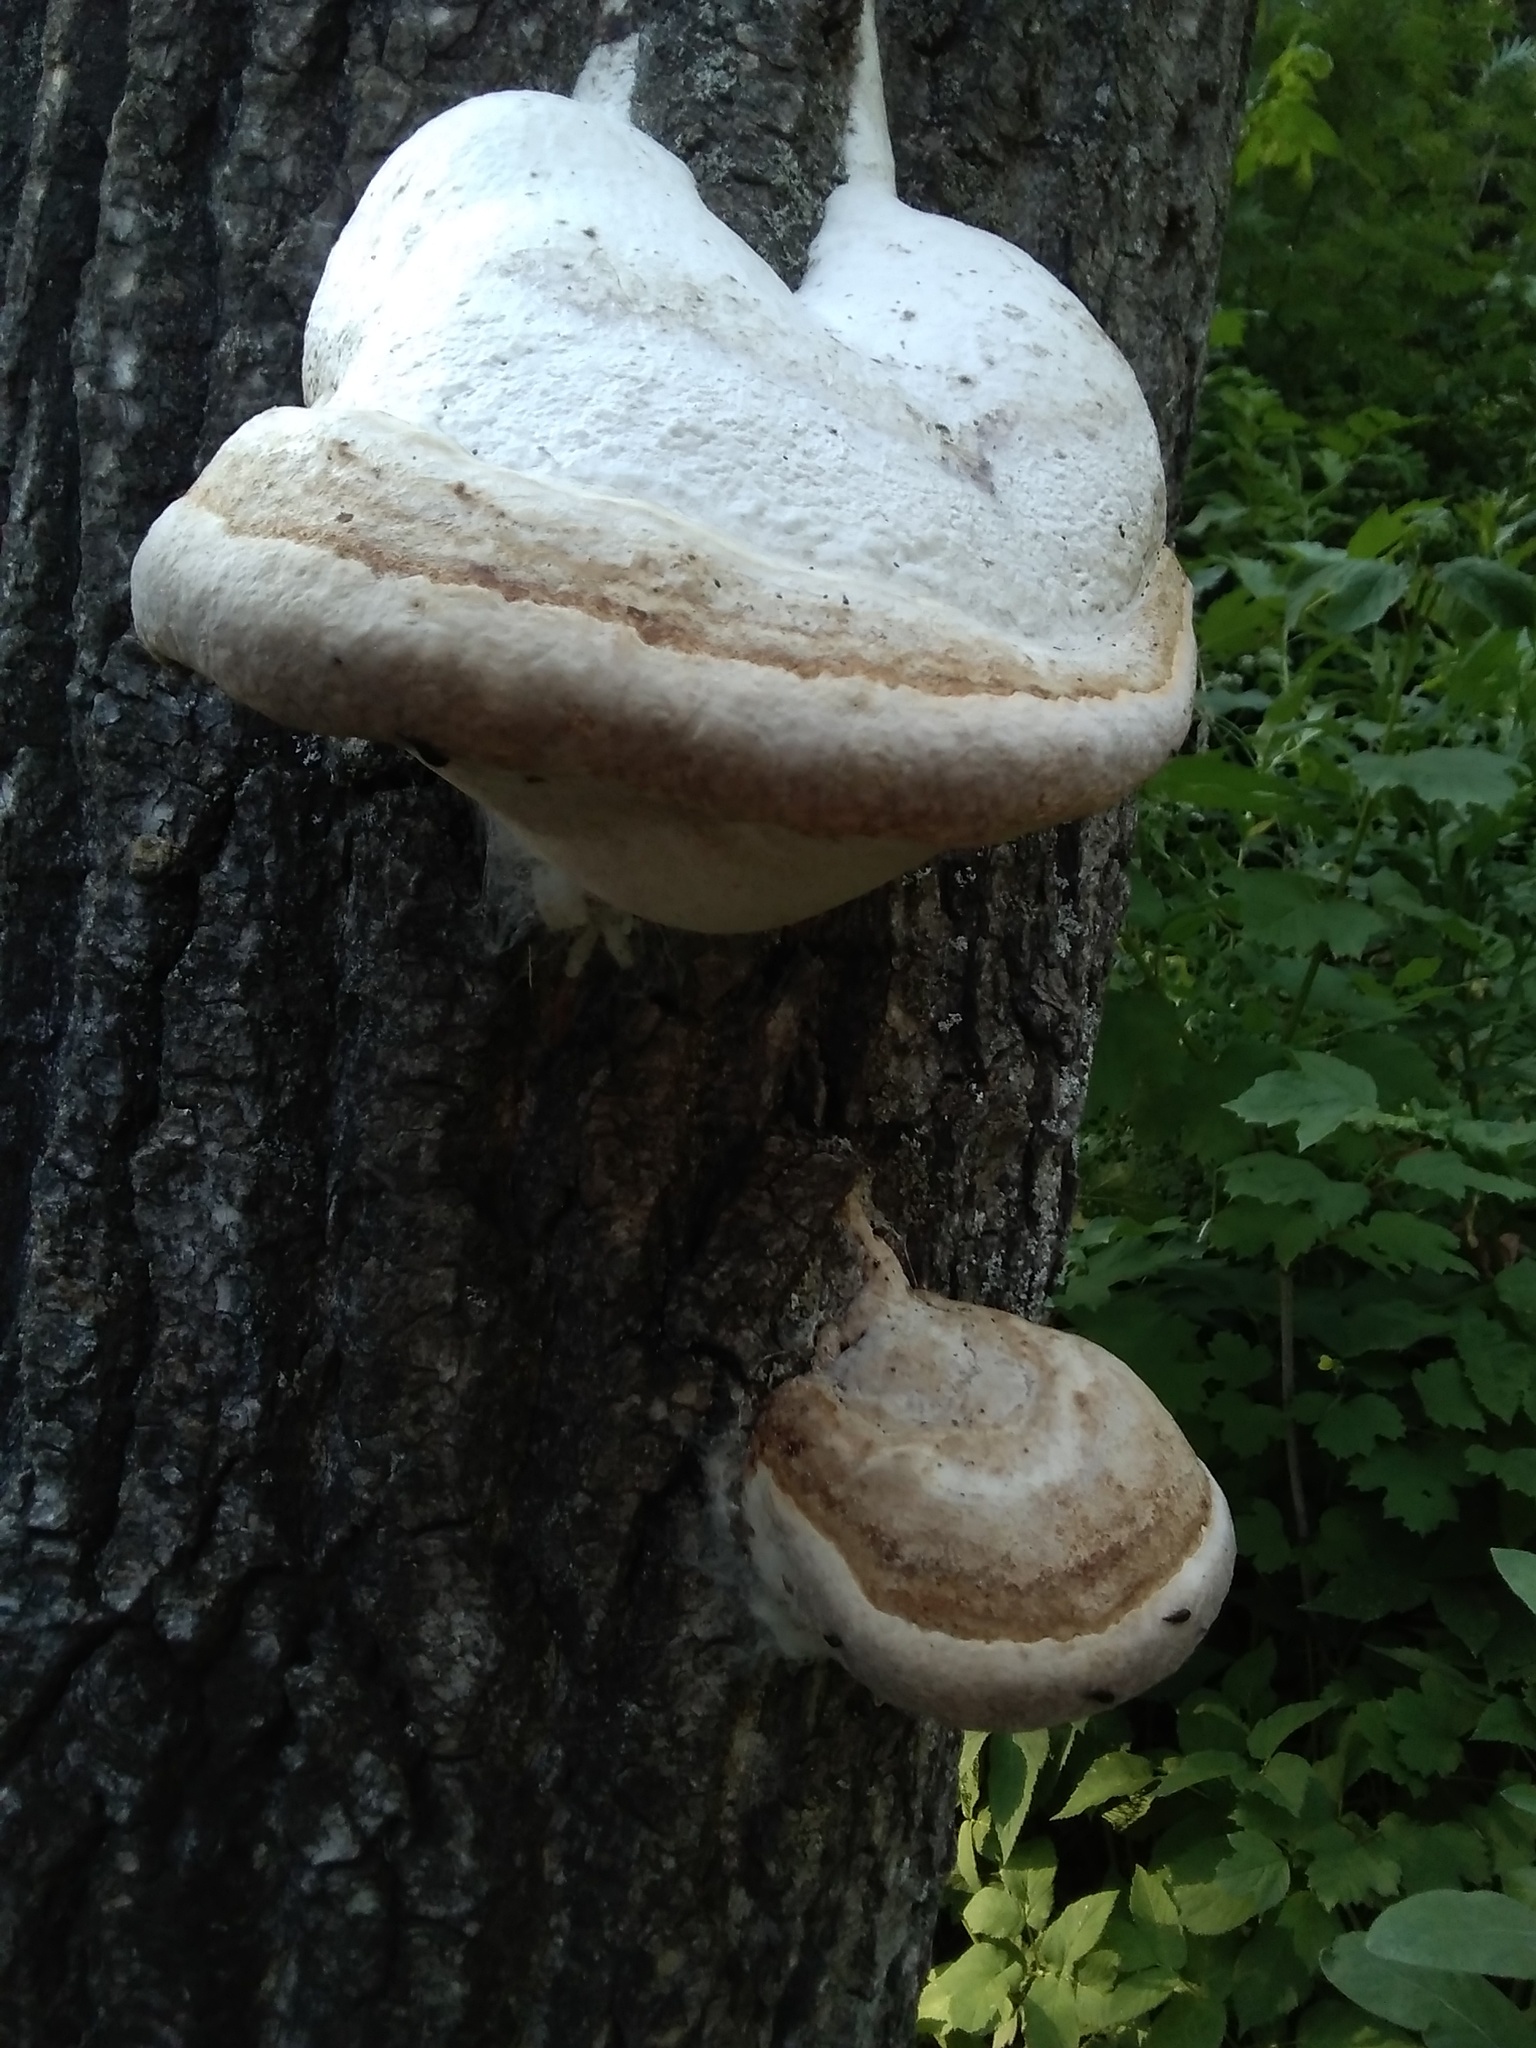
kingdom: Fungi
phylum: Basidiomycota
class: Agaricomycetes
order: Polyporales
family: Polyporaceae
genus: Fomes
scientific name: Fomes fomentarius
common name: Hoof fungus
